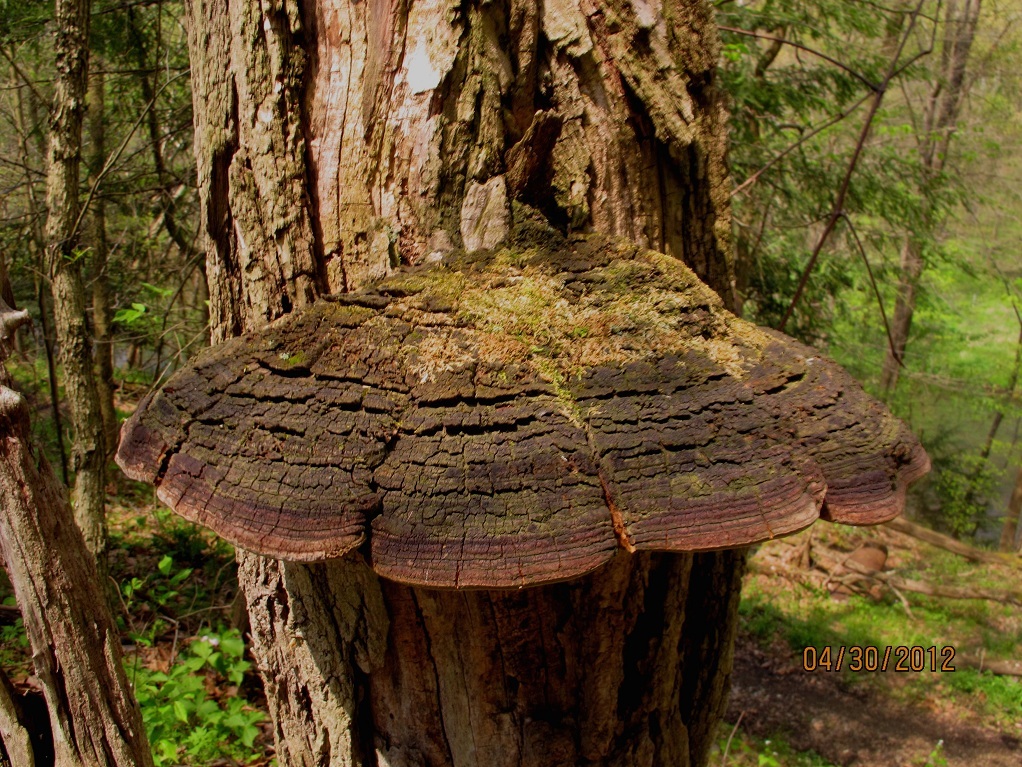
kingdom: Fungi
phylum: Basidiomycota
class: Agaricomycetes
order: Hymenochaetales
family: Hymenochaetaceae
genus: Phellinus
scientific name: Phellinus robiniae
